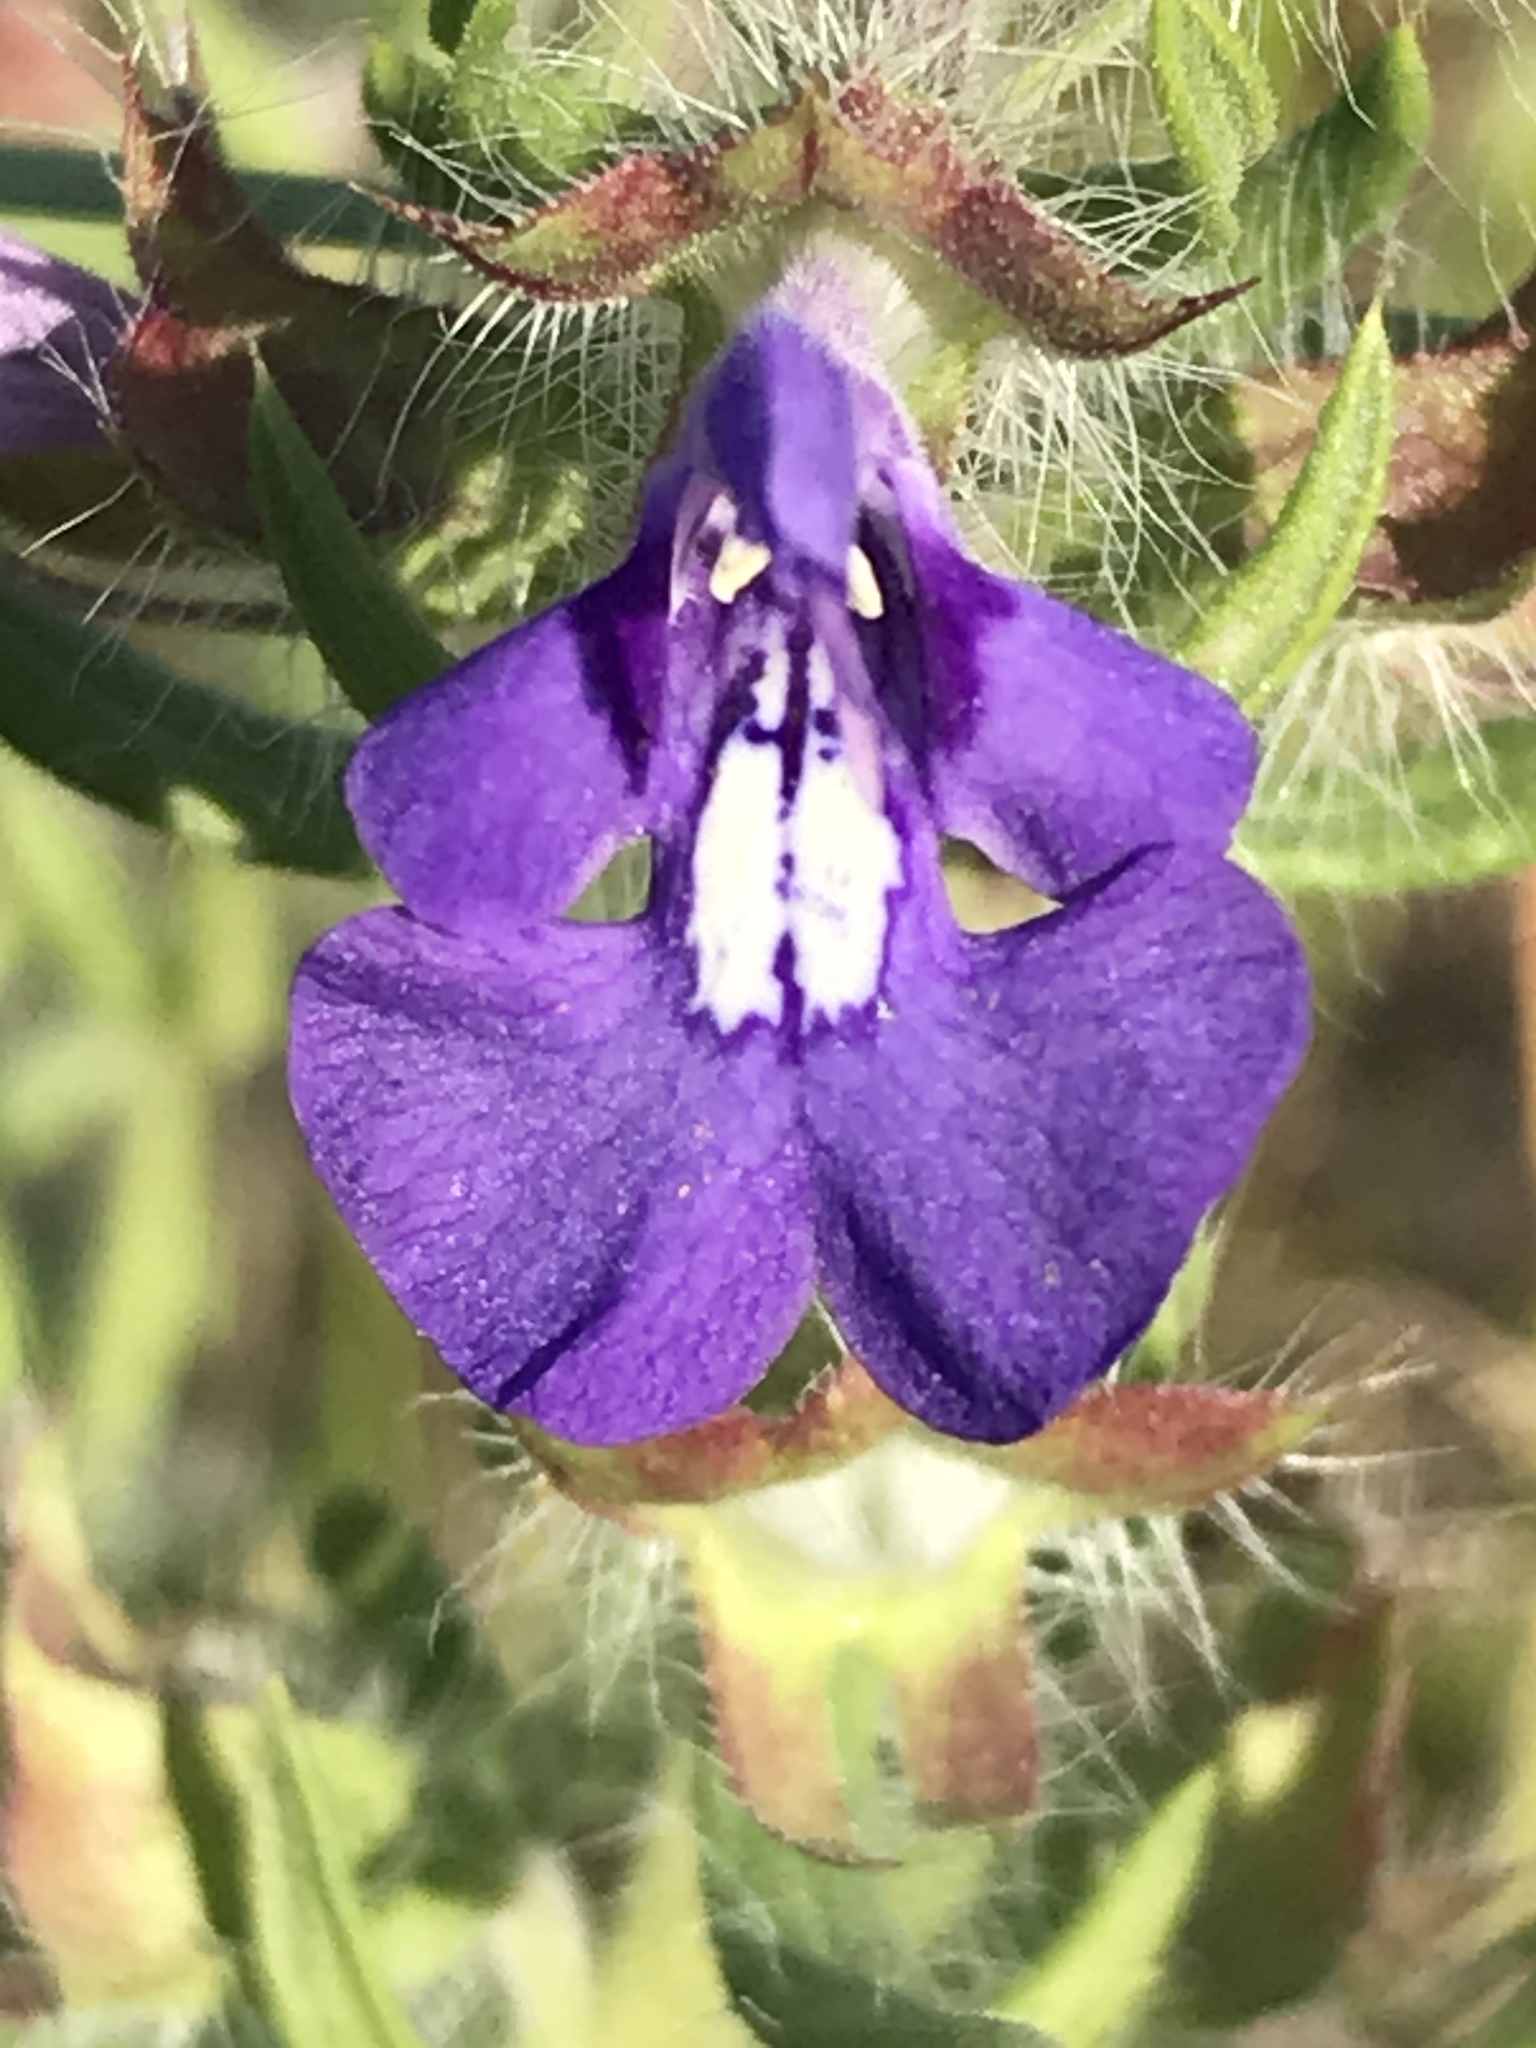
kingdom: Plantae
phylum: Tracheophyta
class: Magnoliopsida
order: Lamiales
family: Lamiaceae
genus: Salvia
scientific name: Salvia texana
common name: Texas sage
